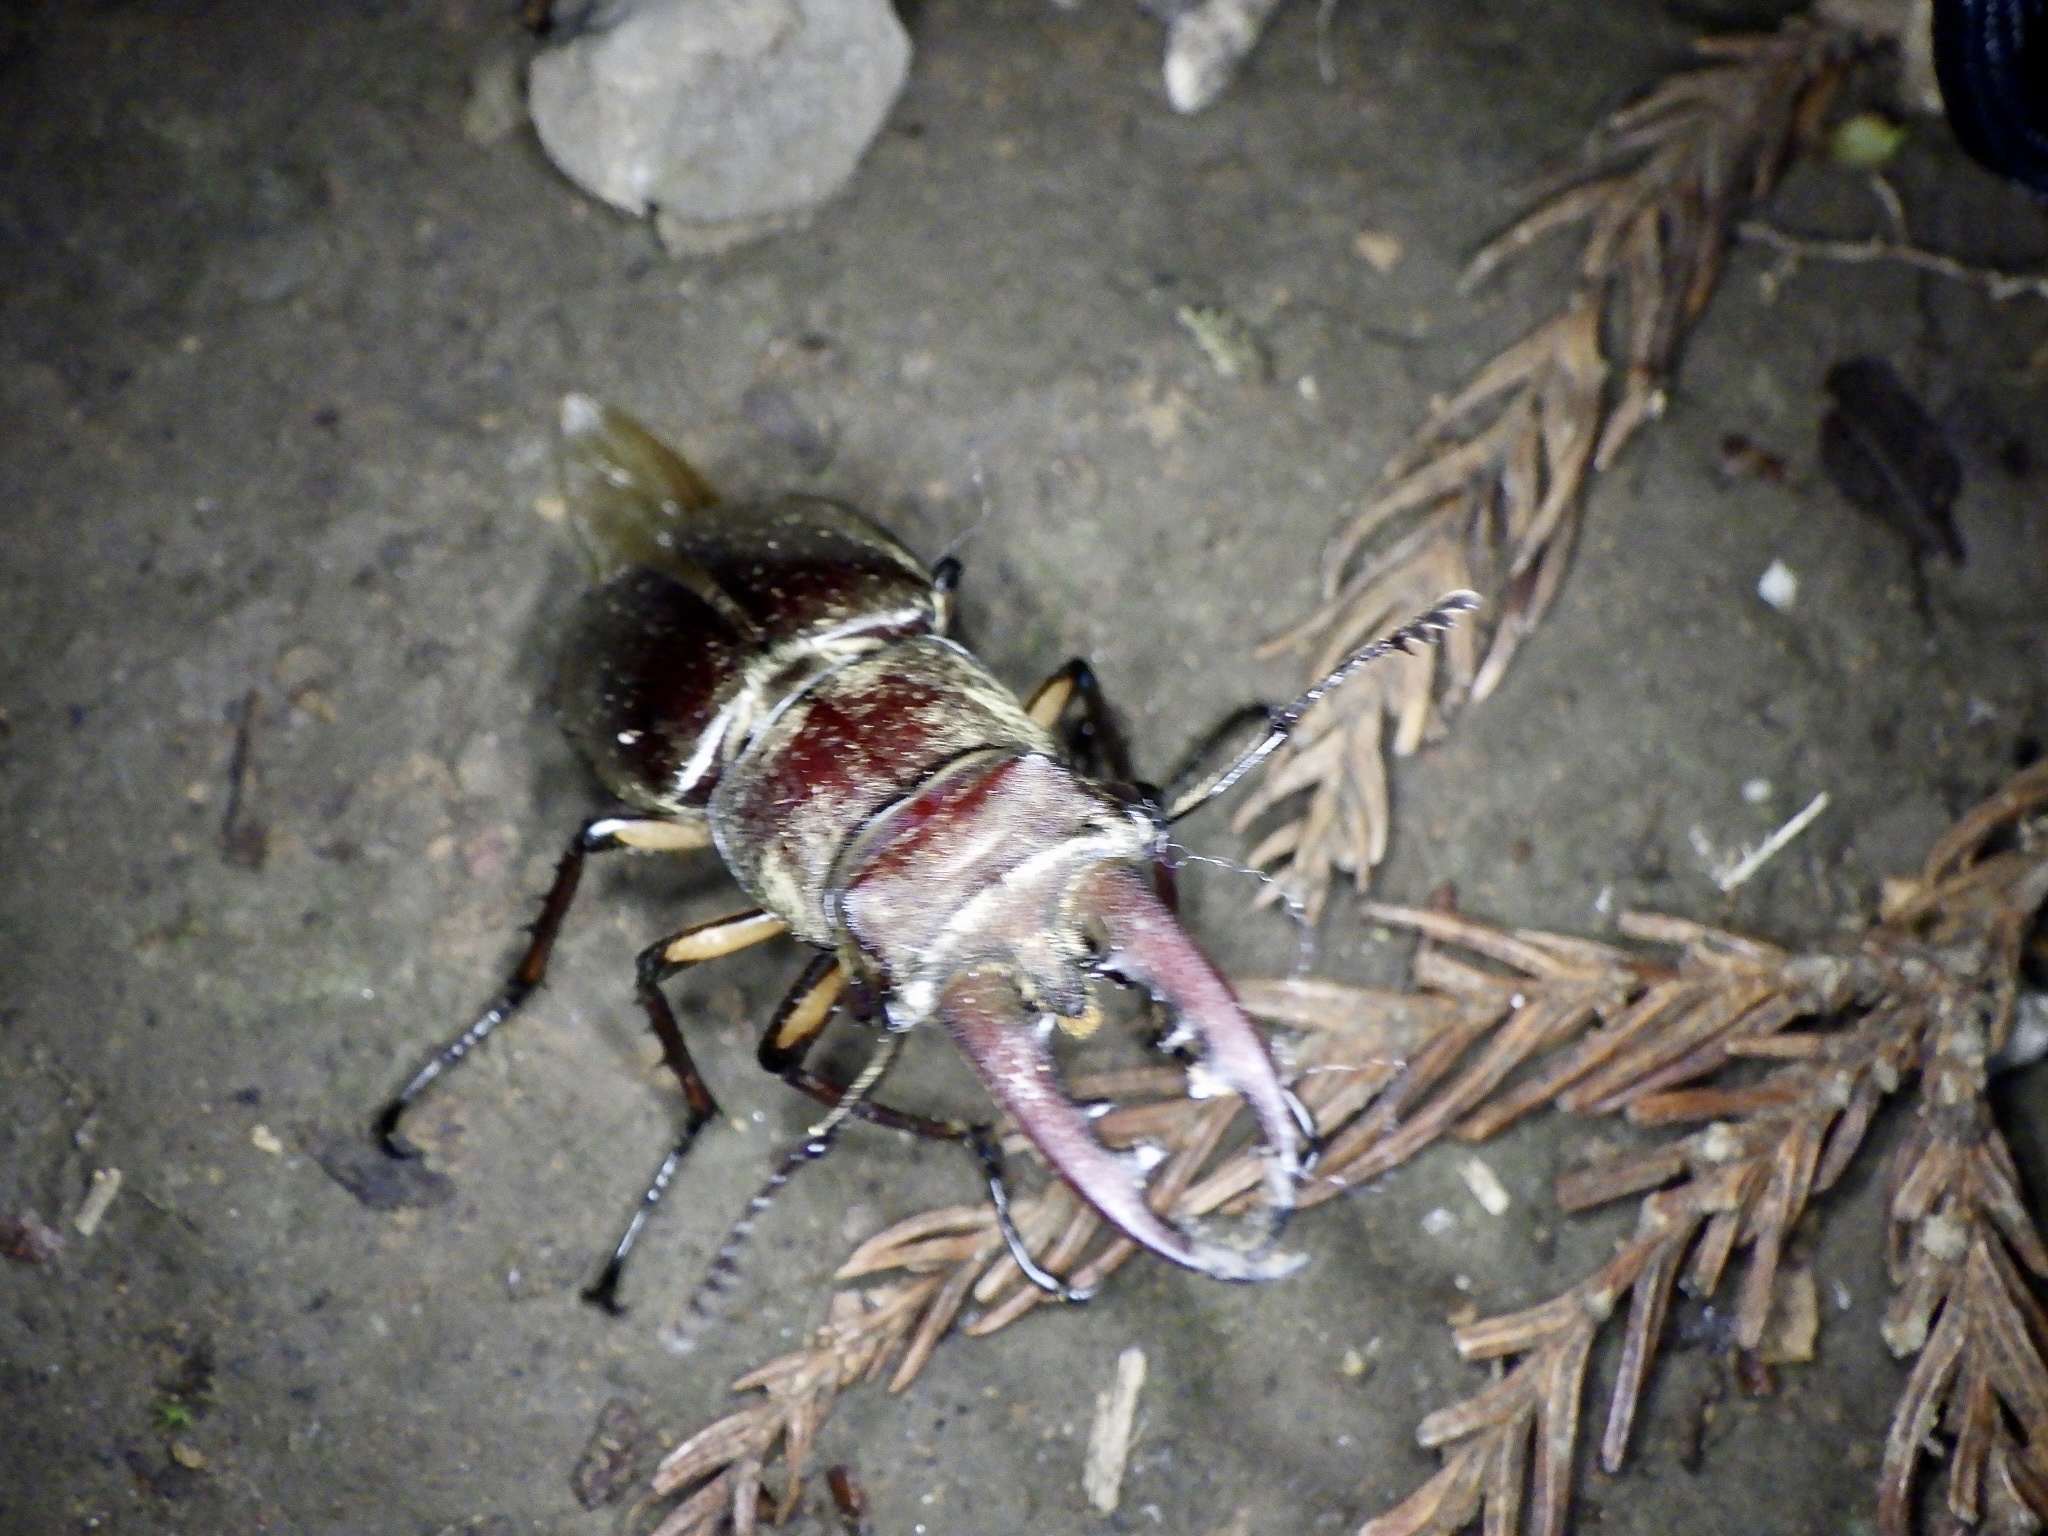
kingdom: Animalia
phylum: Arthropoda
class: Insecta
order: Coleoptera
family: Lucanidae
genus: Lucanus
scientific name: Lucanus maculifemoratus
